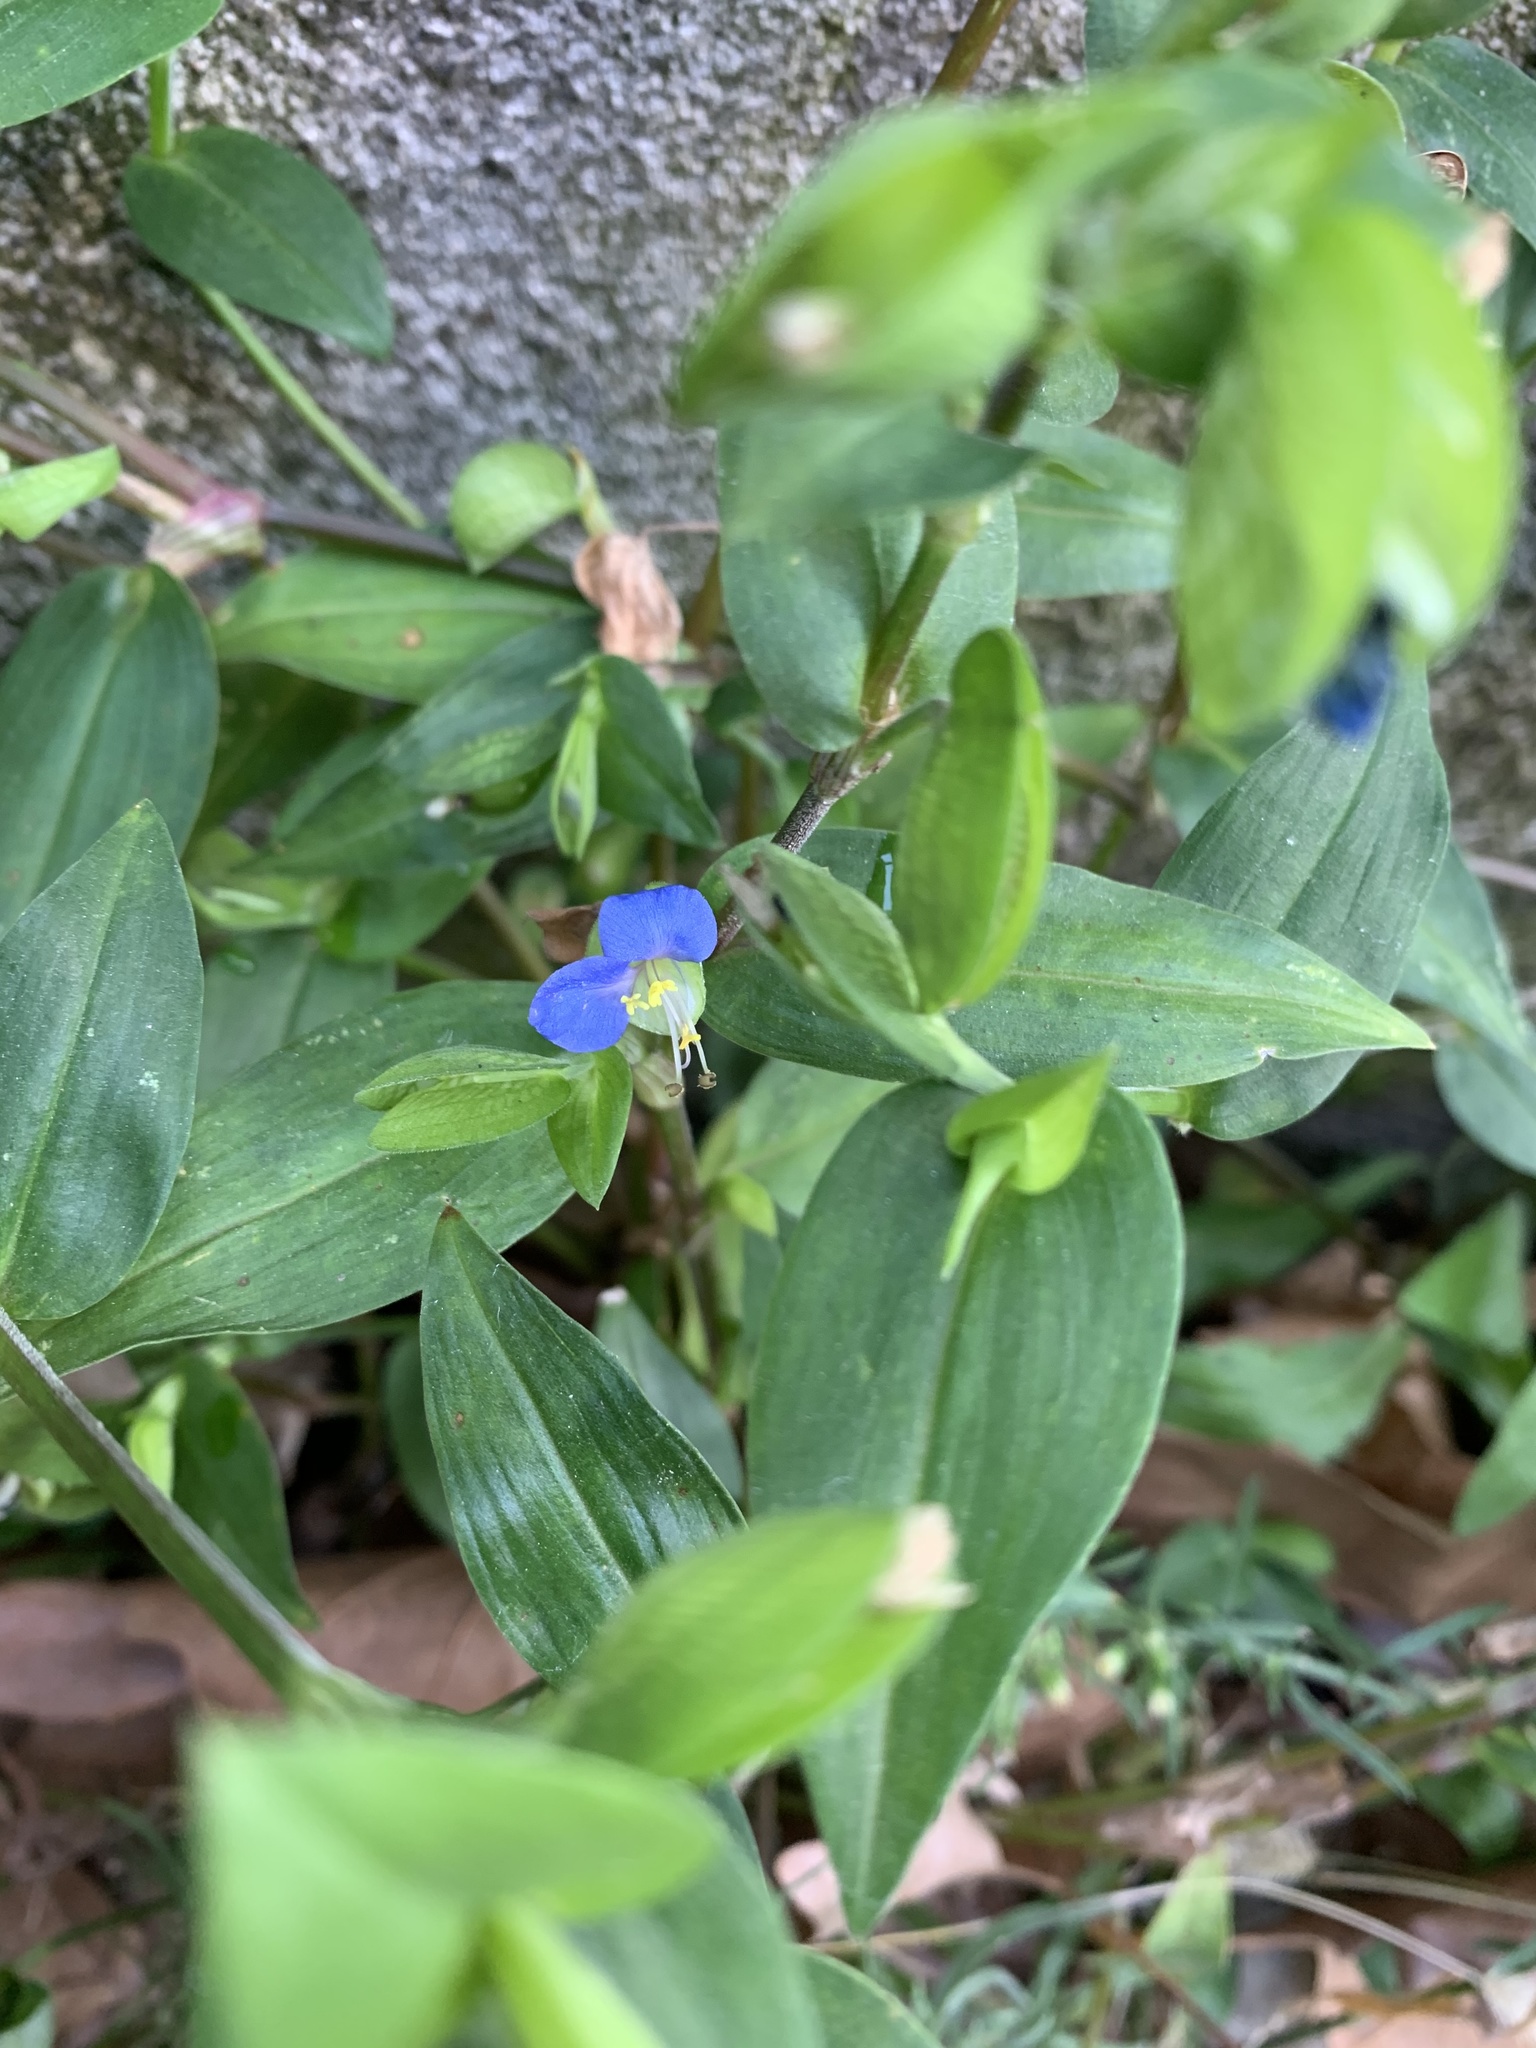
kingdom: Plantae
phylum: Tracheophyta
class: Liliopsida
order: Commelinales
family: Commelinaceae
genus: Commelina
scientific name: Commelina communis
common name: Asiatic dayflower
